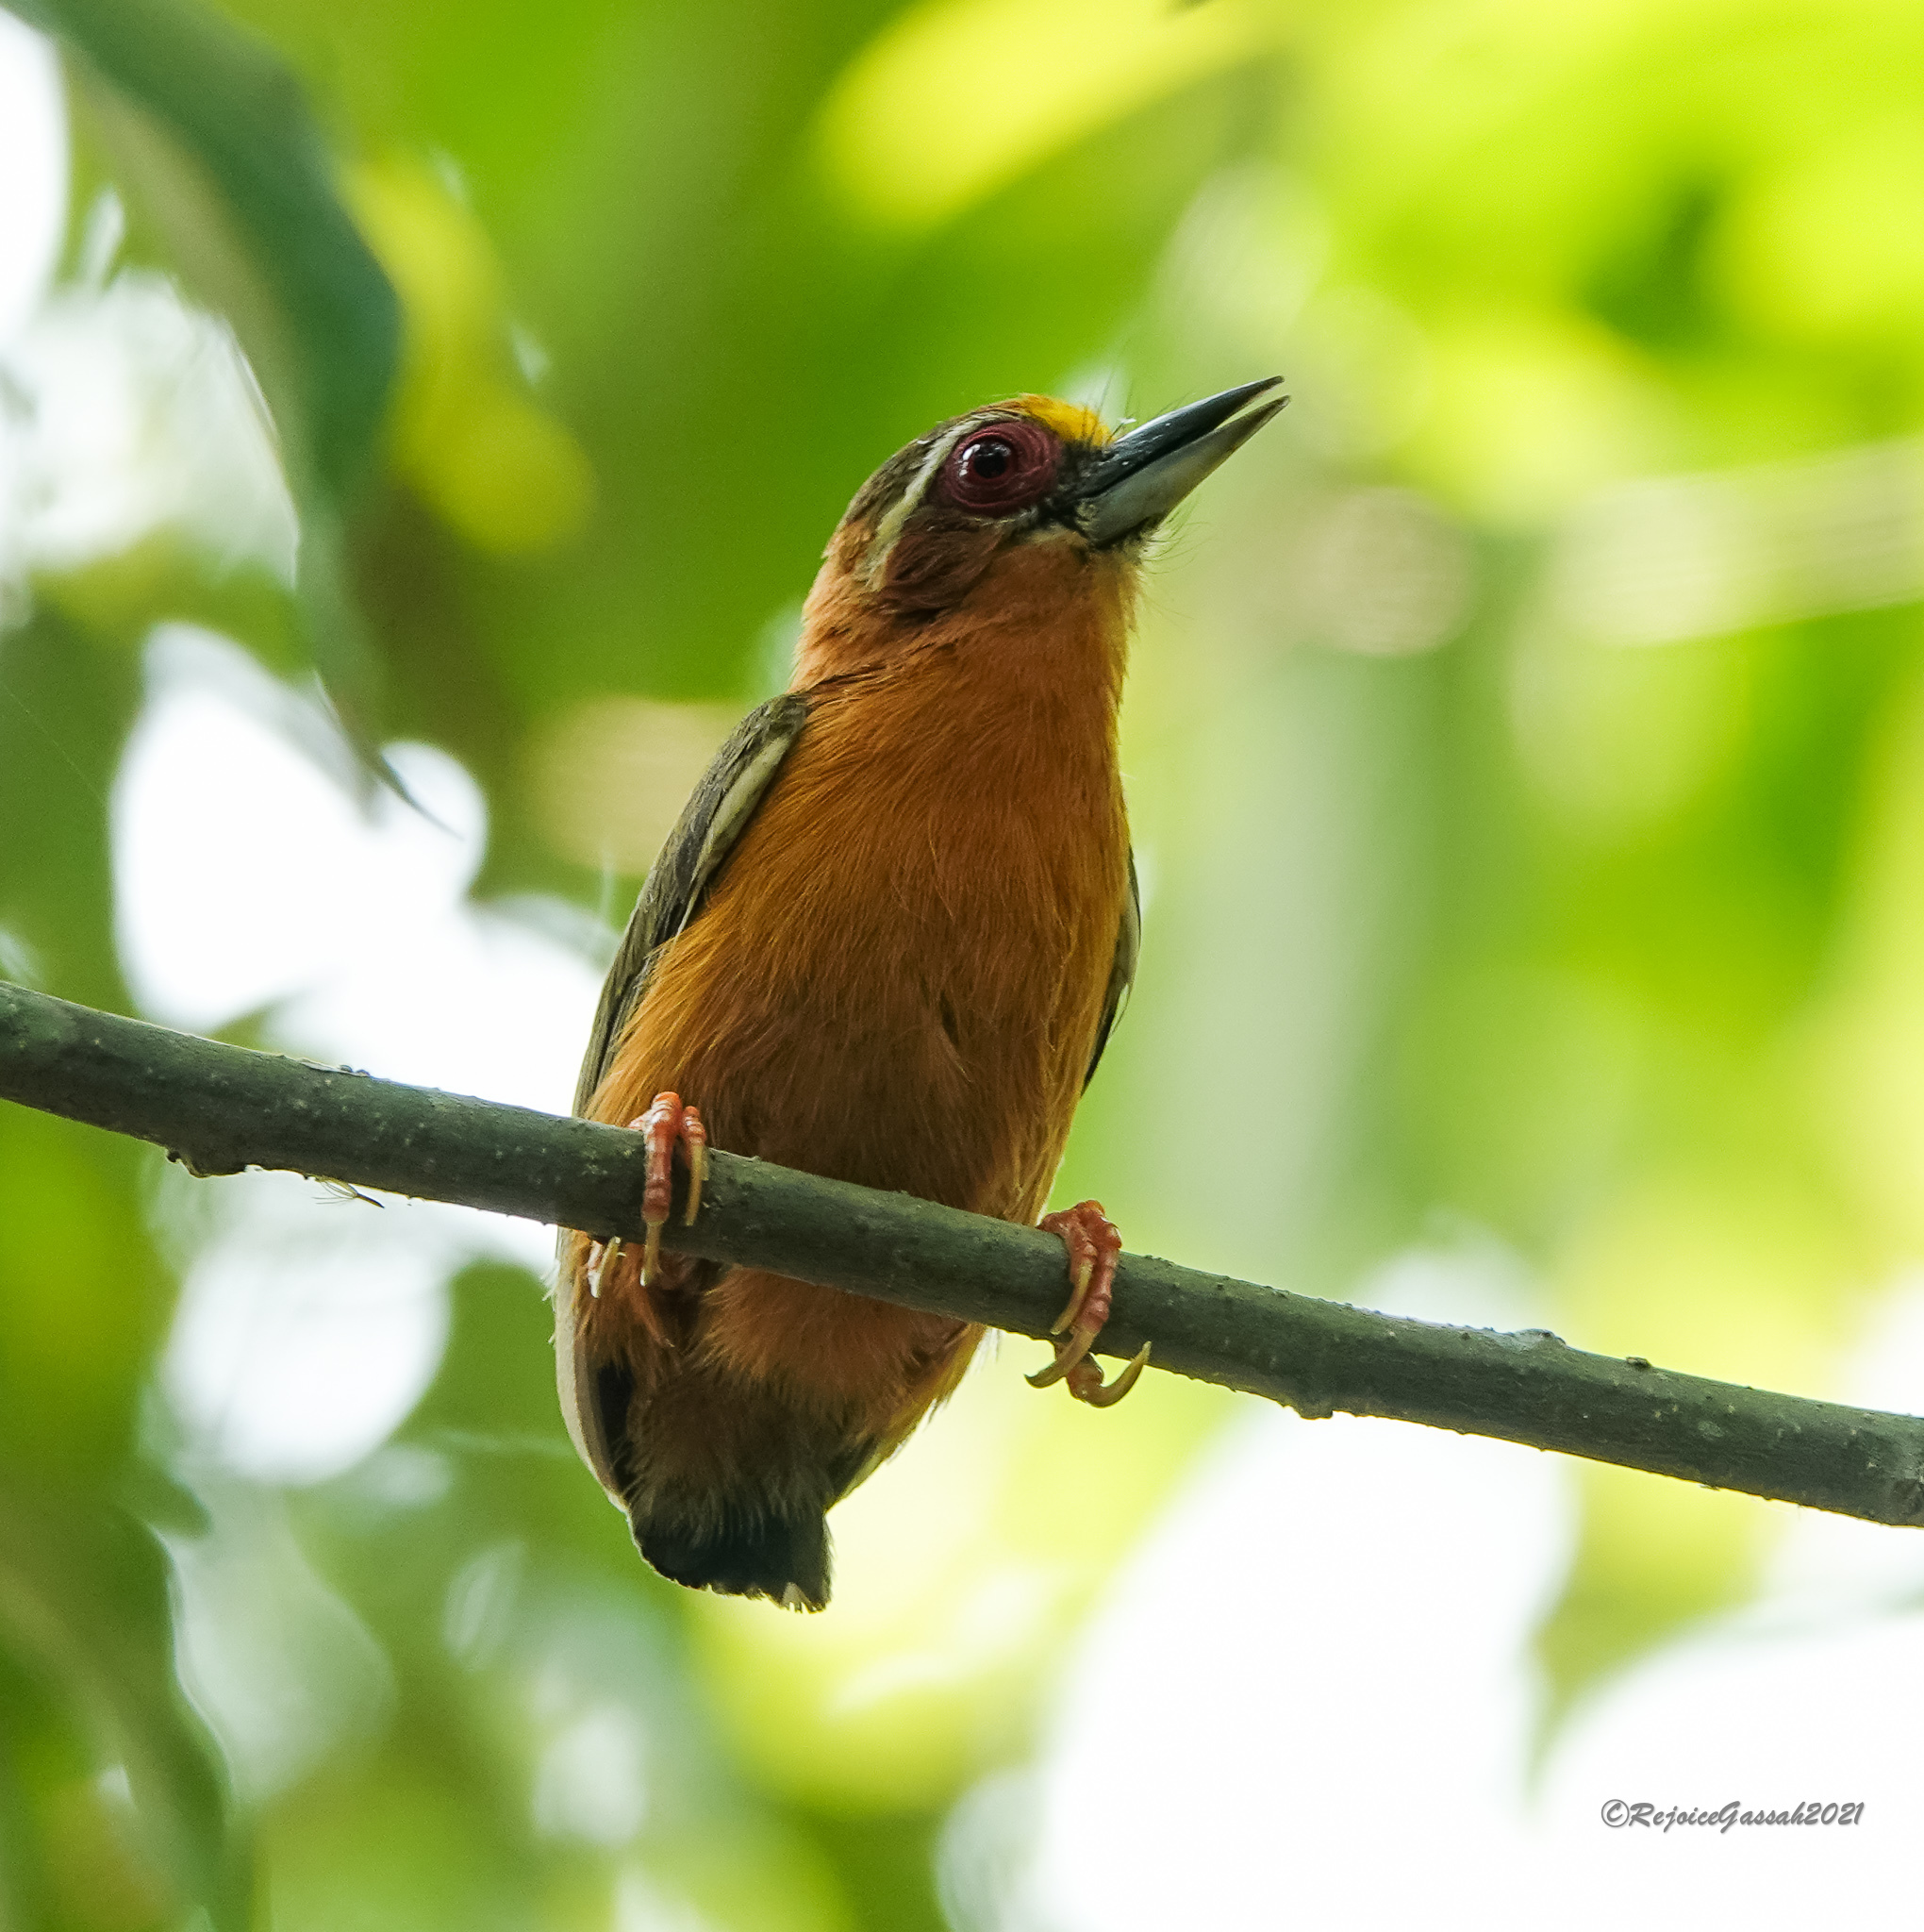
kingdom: Animalia
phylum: Chordata
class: Aves
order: Piciformes
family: Picidae
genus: Sasia
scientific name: Sasia ochracea
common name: White-browed piculet
